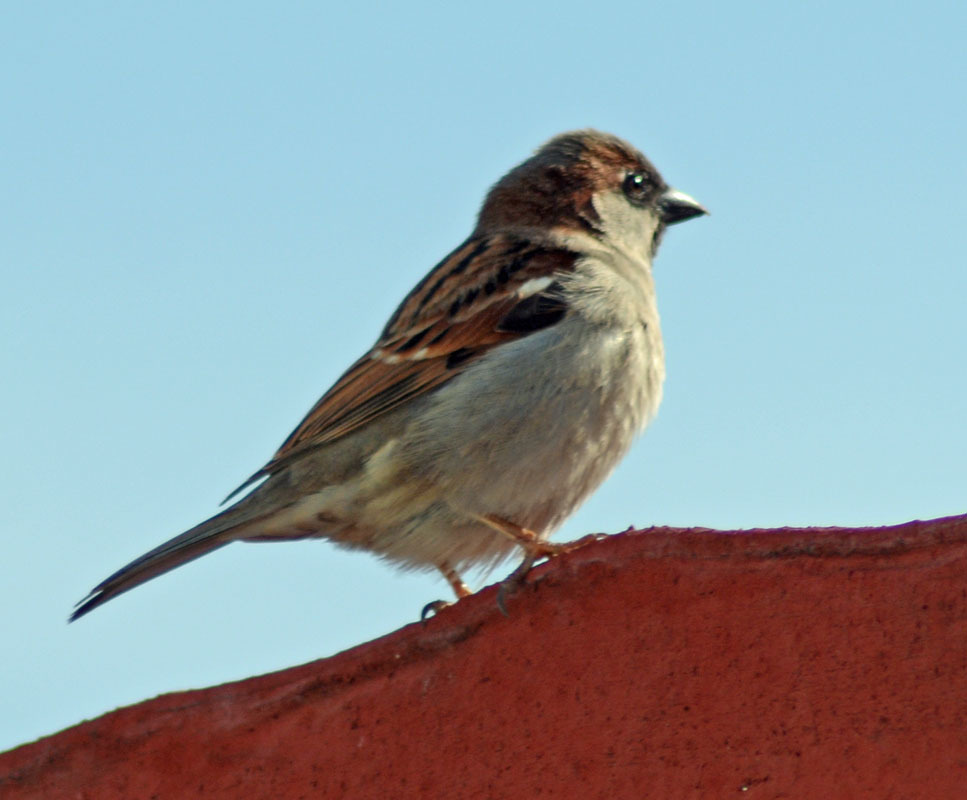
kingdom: Animalia
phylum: Chordata
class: Aves
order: Passeriformes
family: Passeridae
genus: Passer
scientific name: Passer domesticus
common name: House sparrow
